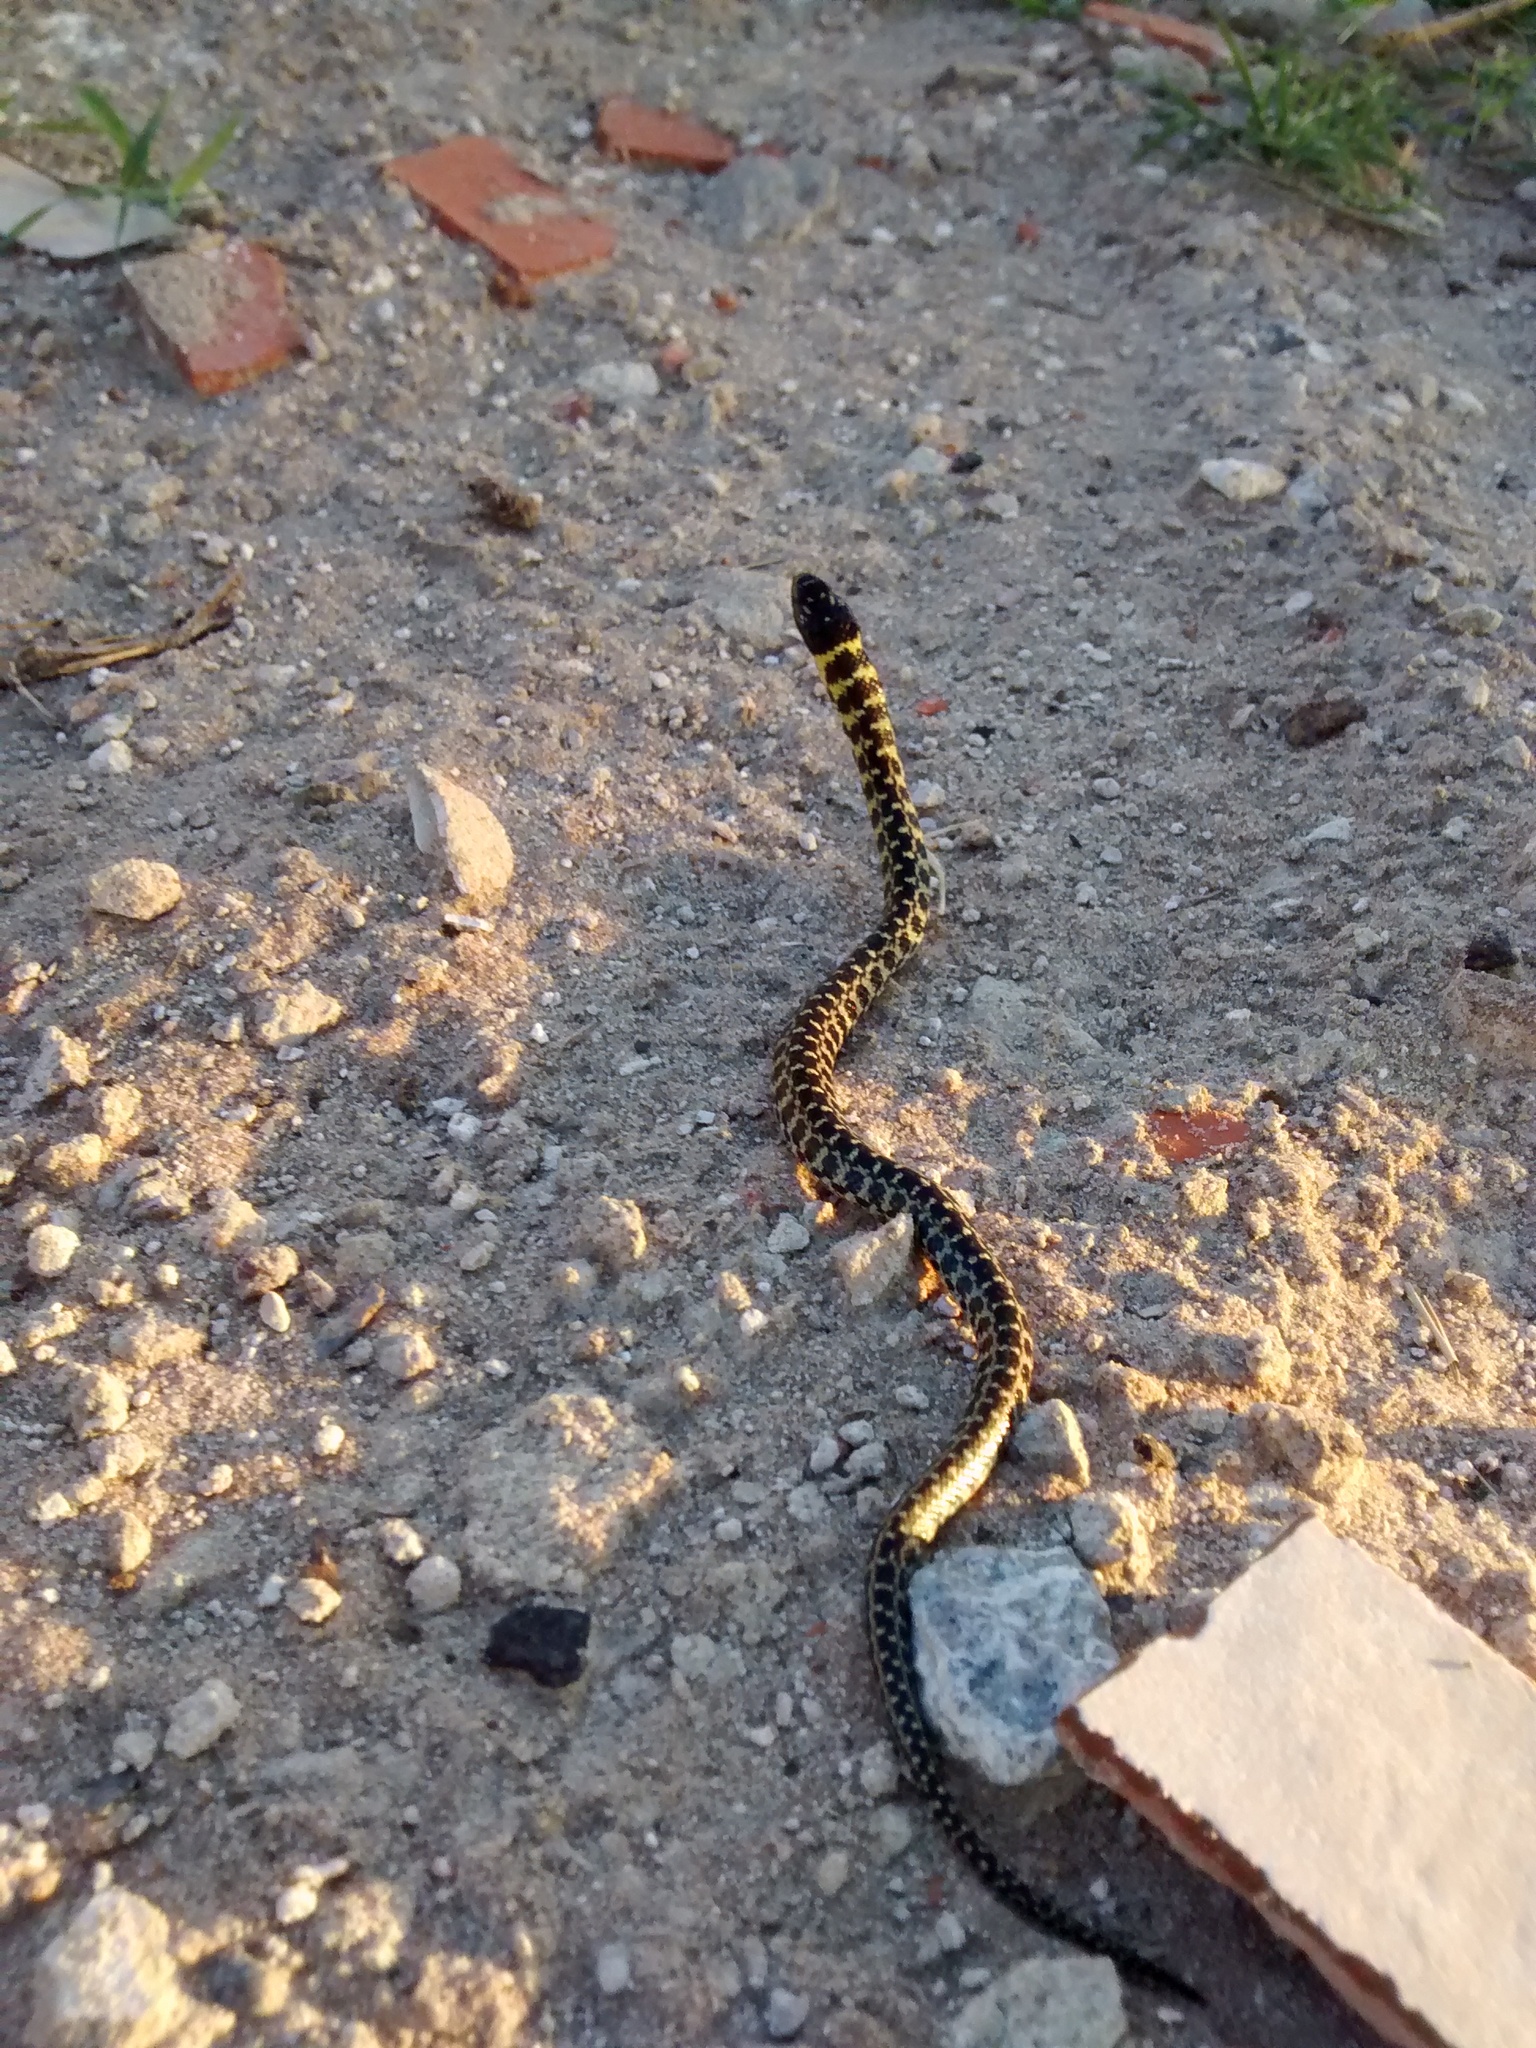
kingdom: Animalia
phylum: Chordata
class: Squamata
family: Colubridae
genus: Erythrolamprus
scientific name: Erythrolamprus poecilogyrus
